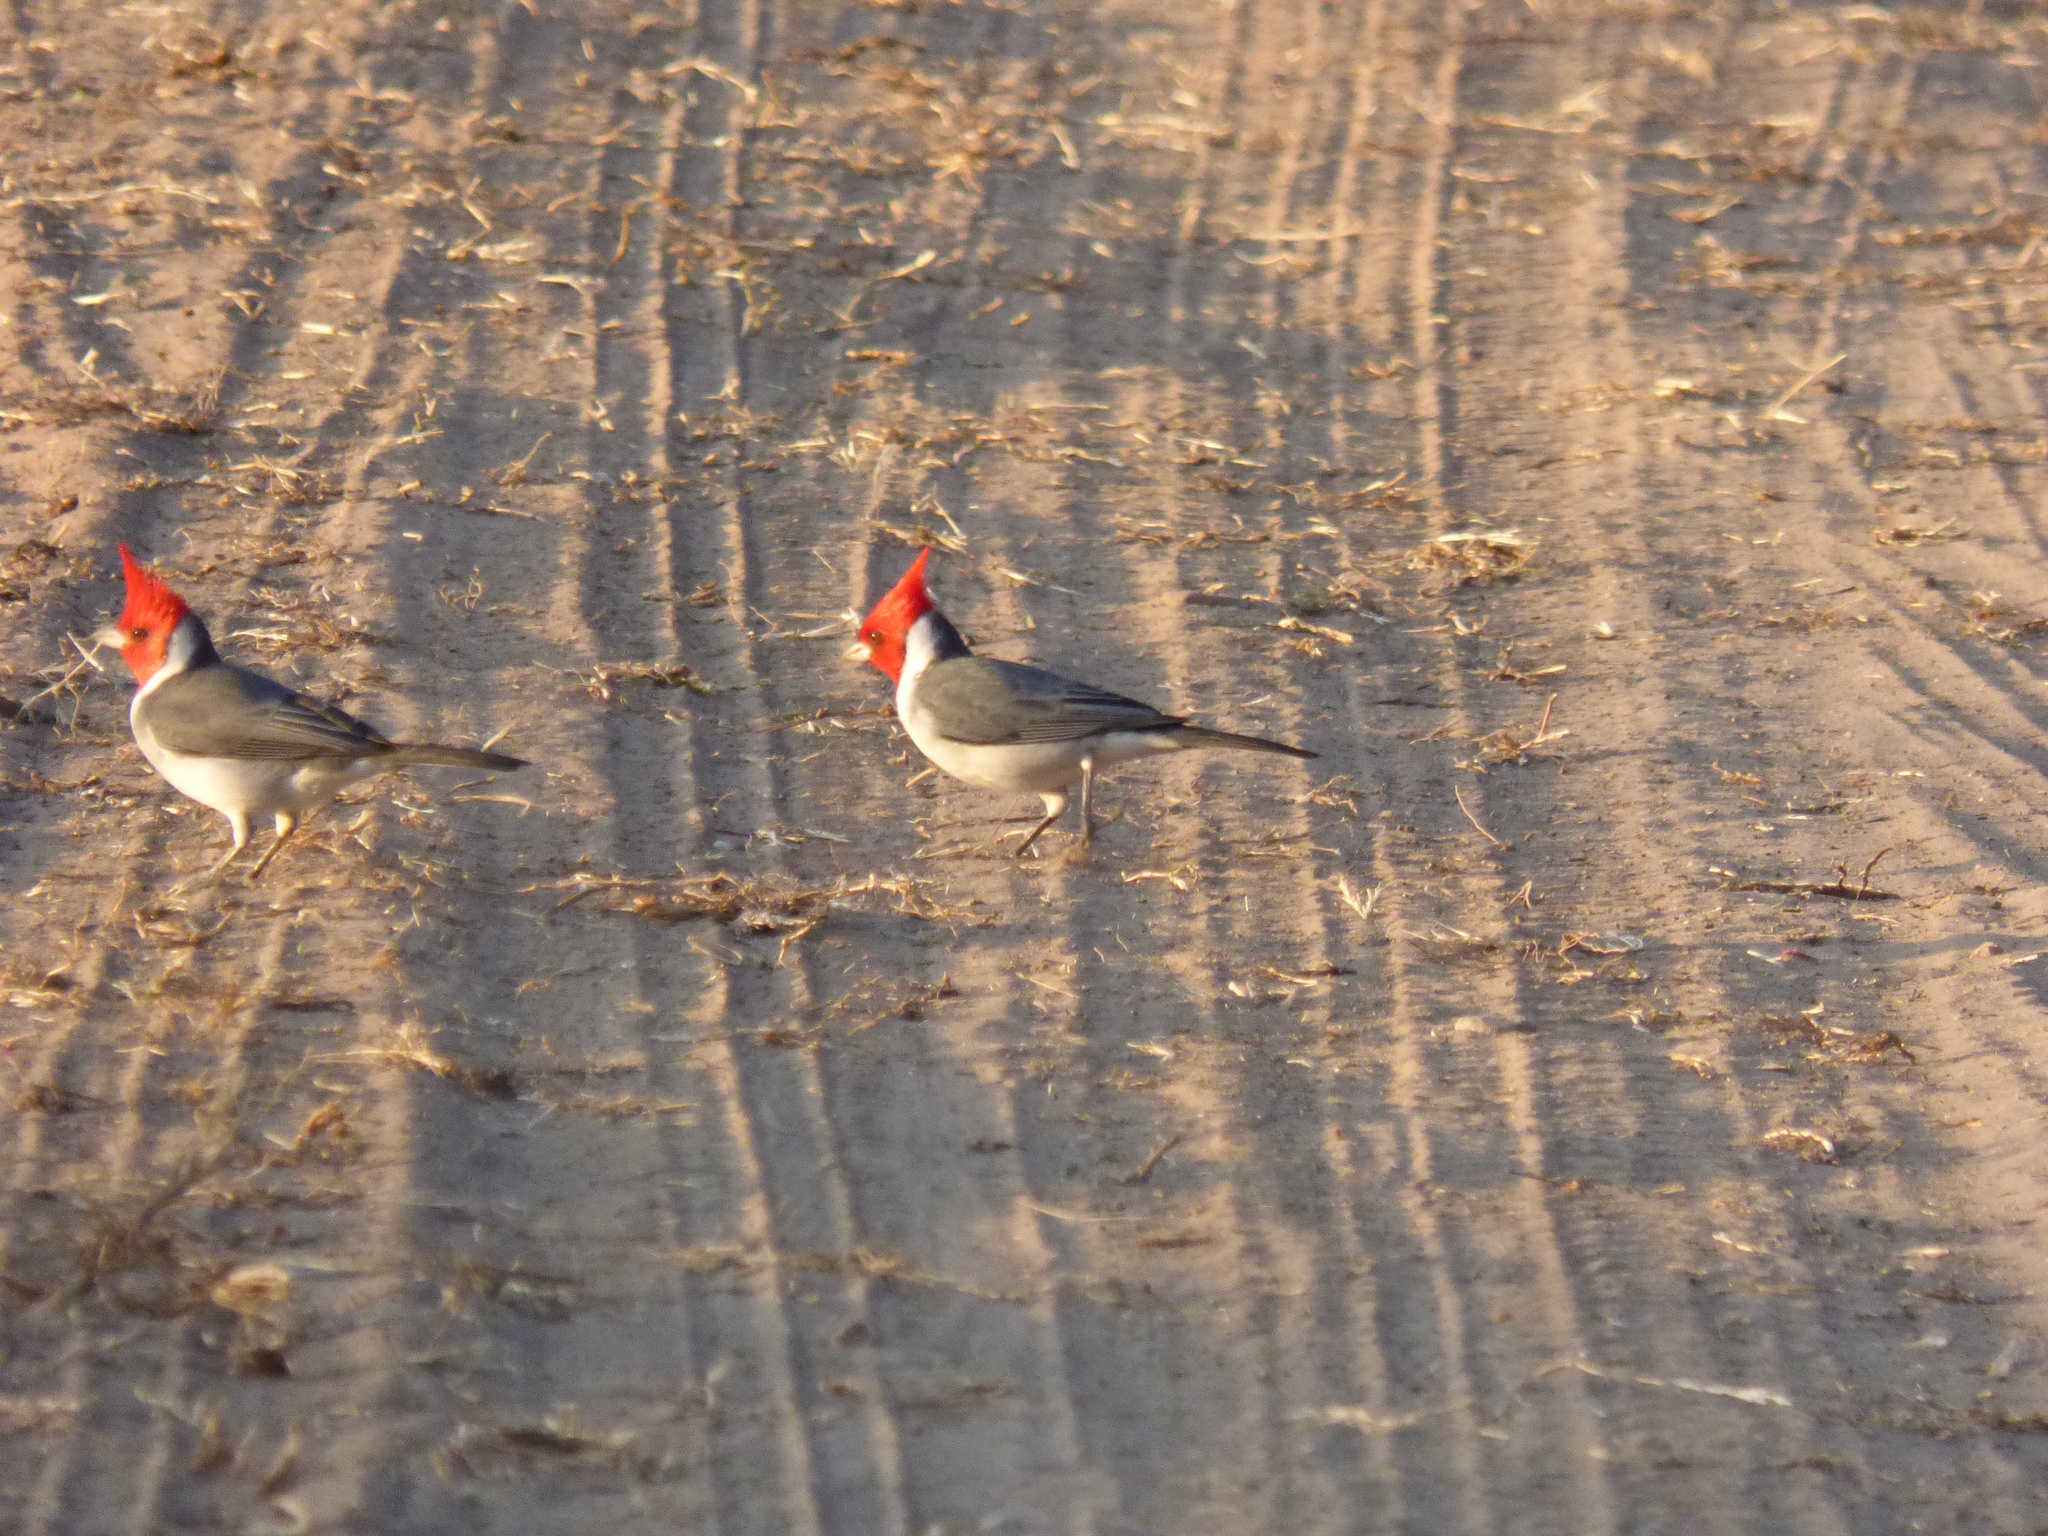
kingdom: Animalia
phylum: Chordata
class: Aves
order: Passeriformes
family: Thraupidae
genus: Paroaria
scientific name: Paroaria coronata
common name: Red-crested cardinal
